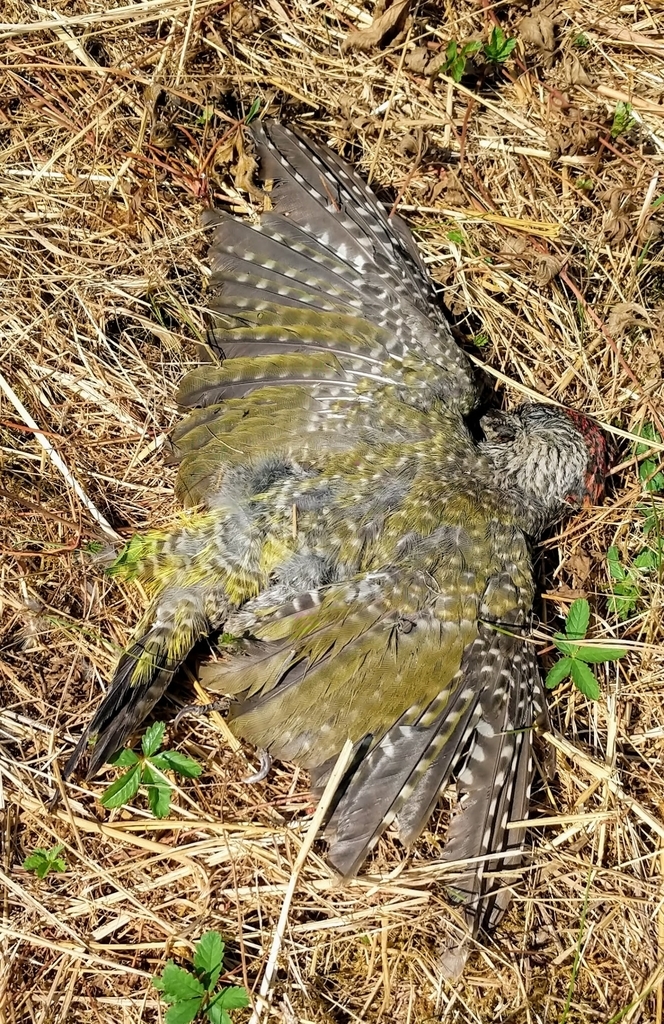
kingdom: Animalia
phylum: Chordata
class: Aves
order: Piciformes
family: Picidae
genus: Picus
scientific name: Picus viridis
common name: European green woodpecker
